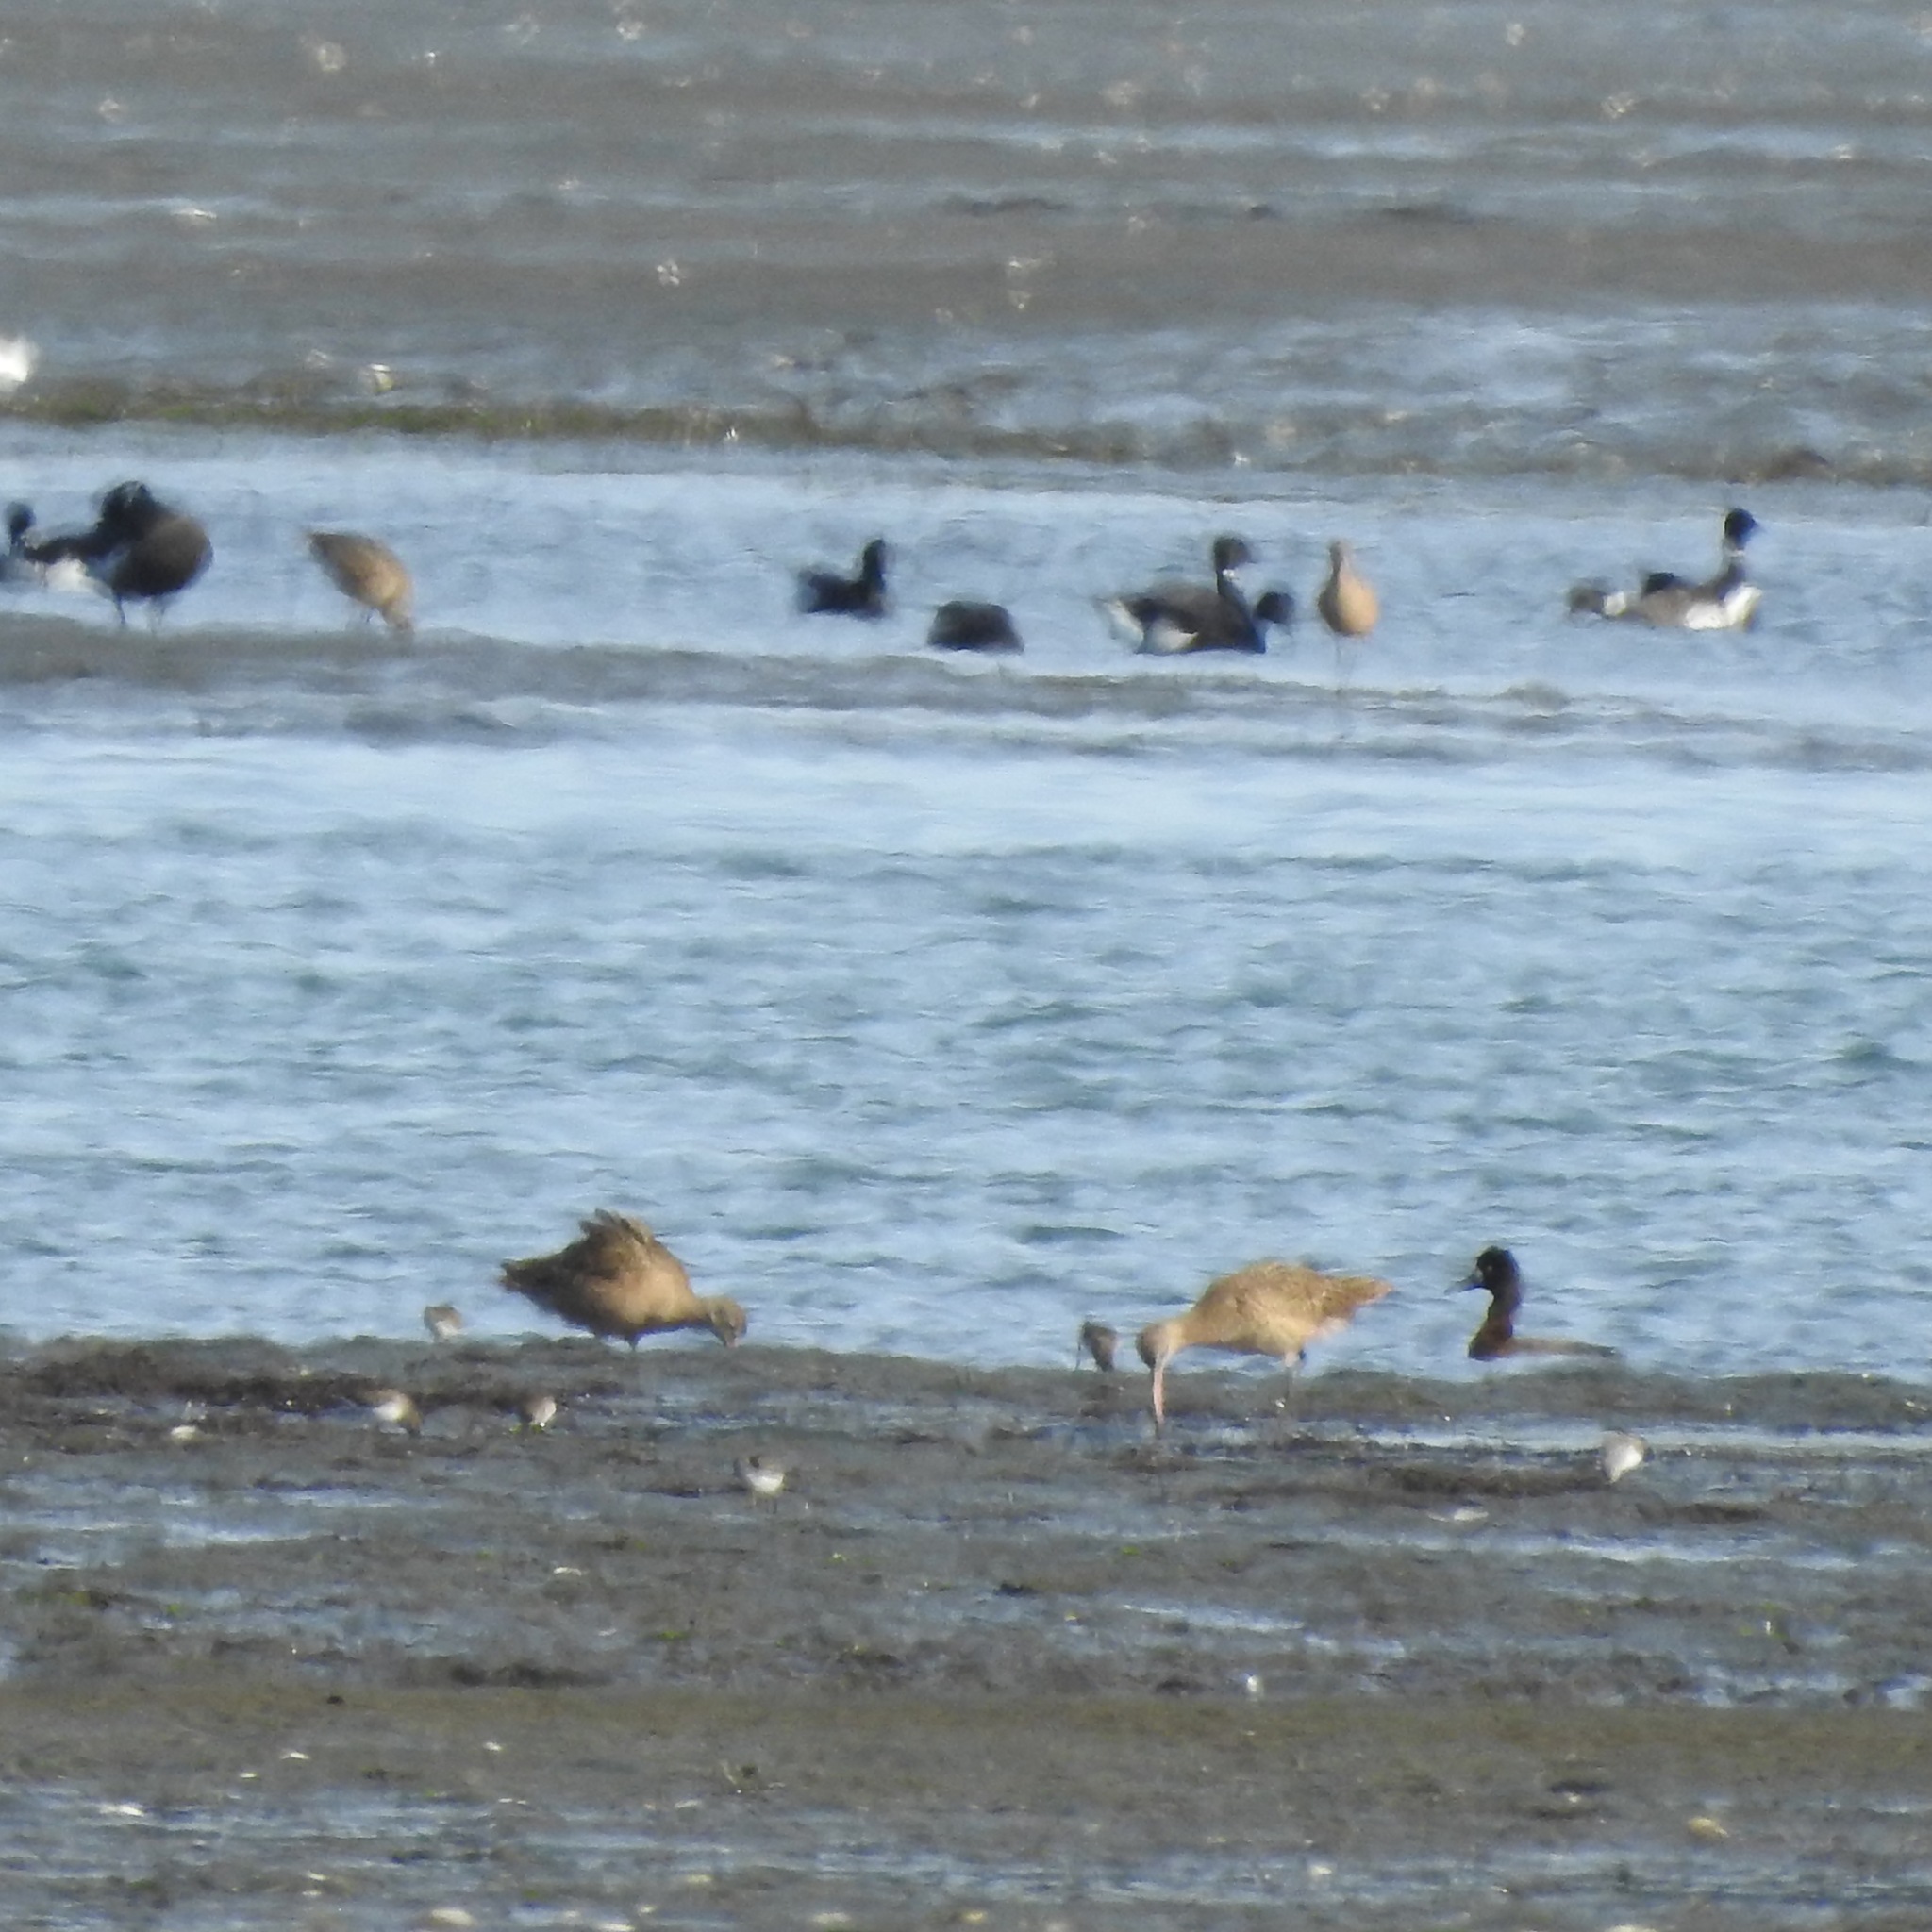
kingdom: Animalia
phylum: Chordata
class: Aves
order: Anseriformes
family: Anatidae
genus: Branta
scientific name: Branta bernicla
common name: Brant goose
